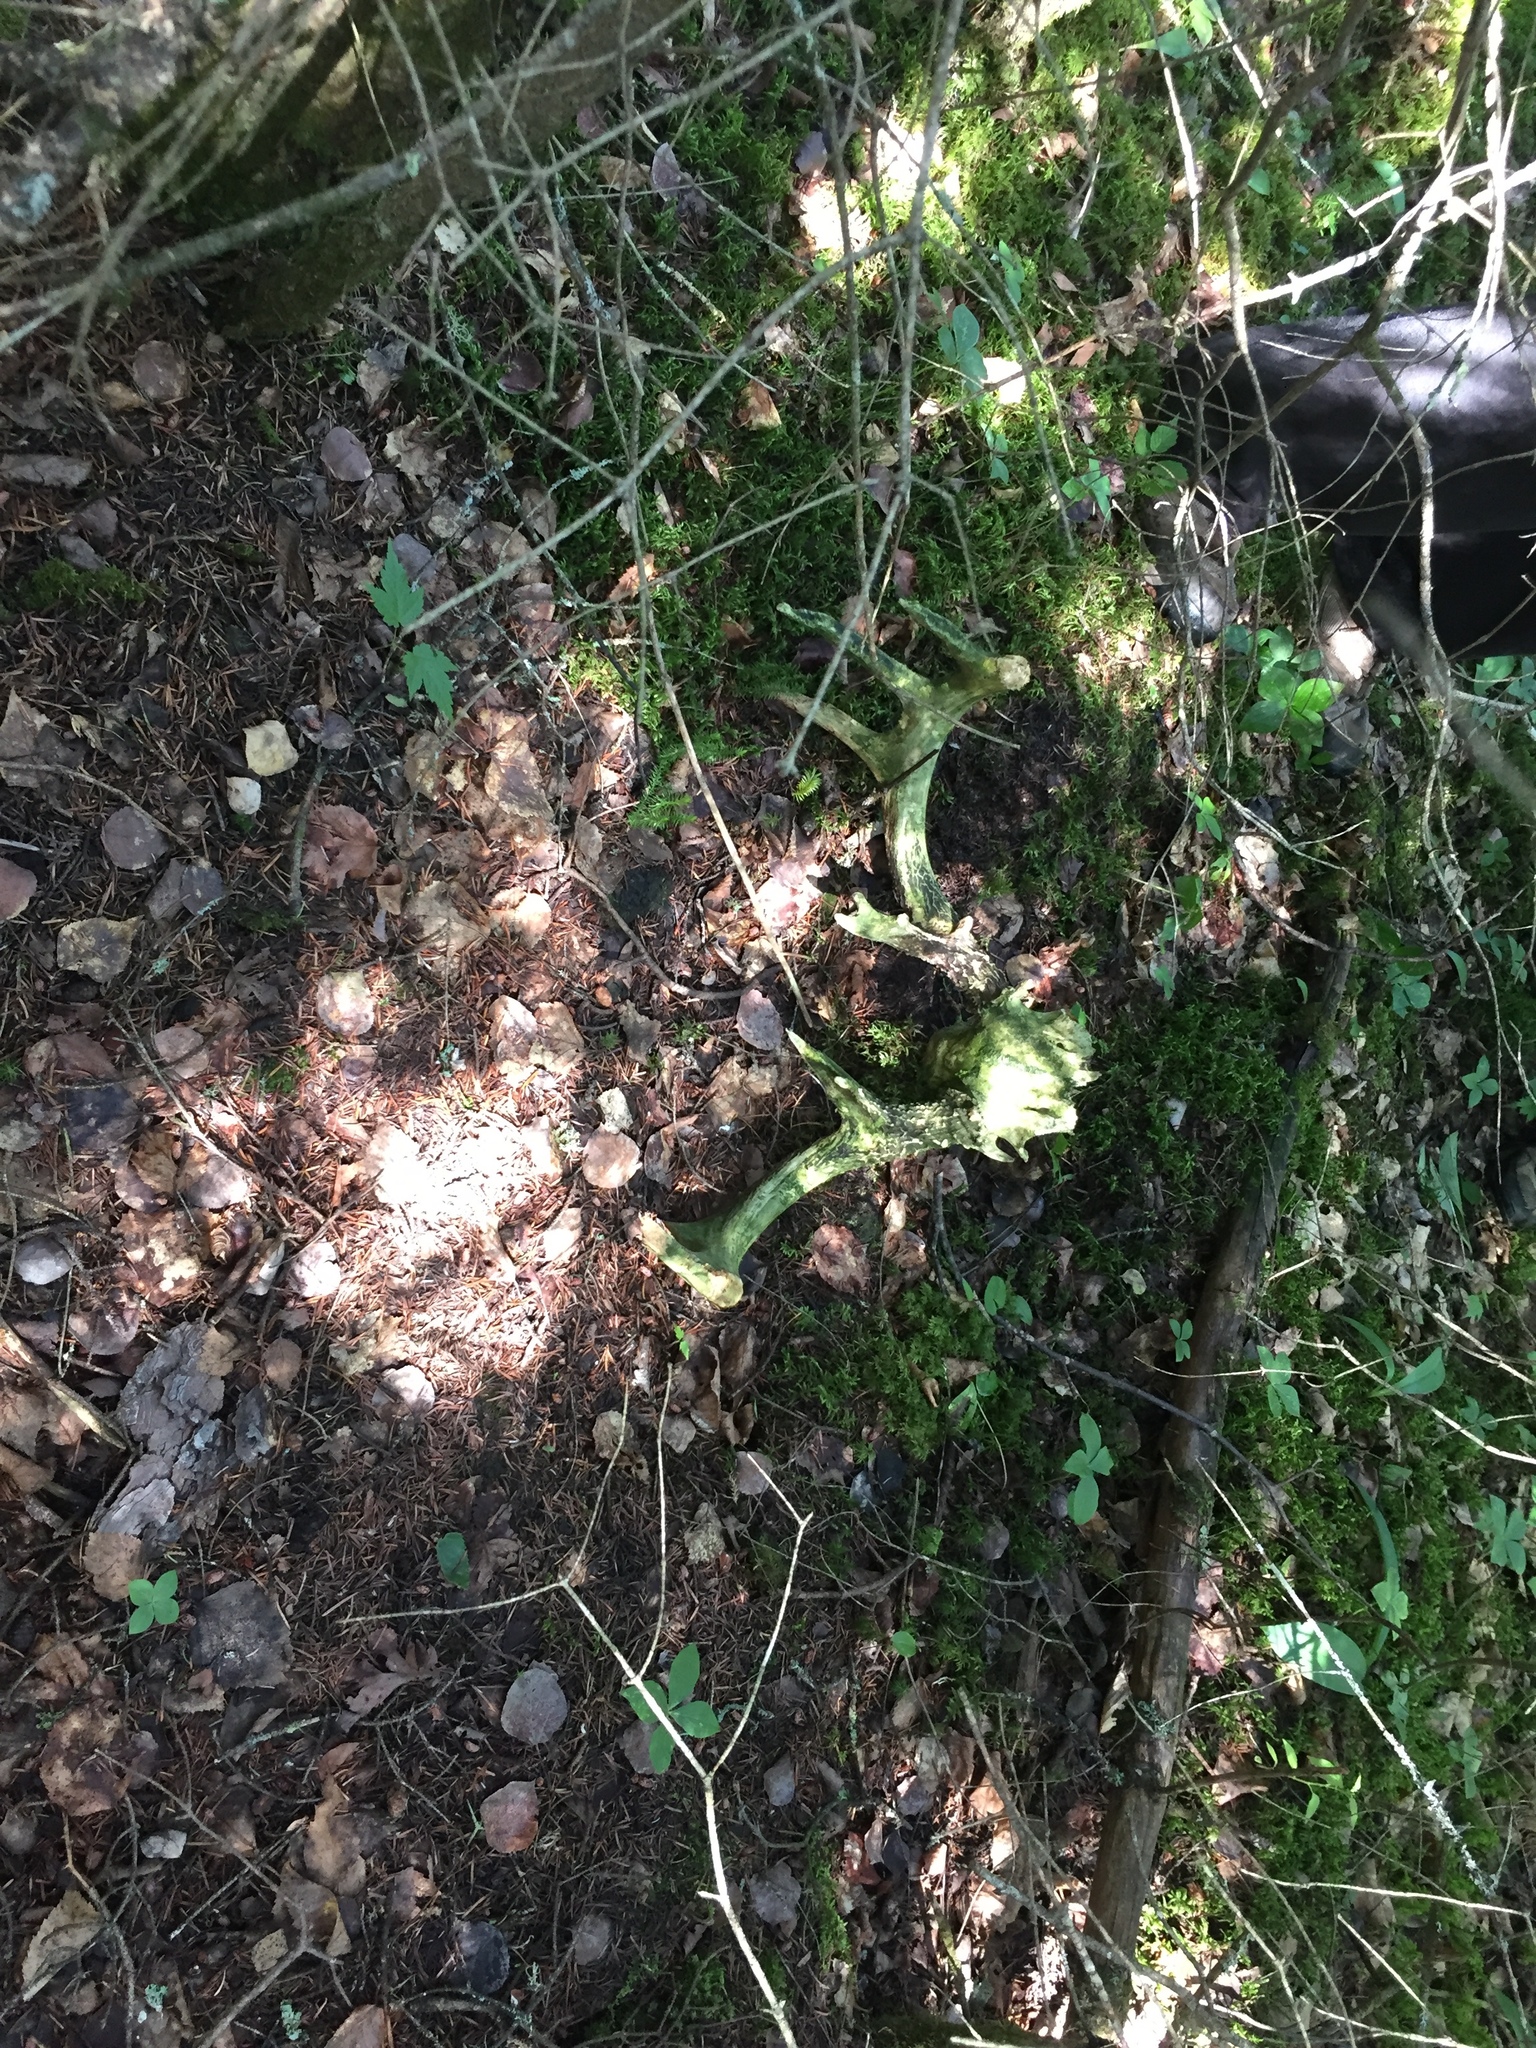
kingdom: Animalia
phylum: Chordata
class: Mammalia
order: Artiodactyla
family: Cervidae
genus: Odocoileus
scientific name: Odocoileus virginianus
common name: White-tailed deer
